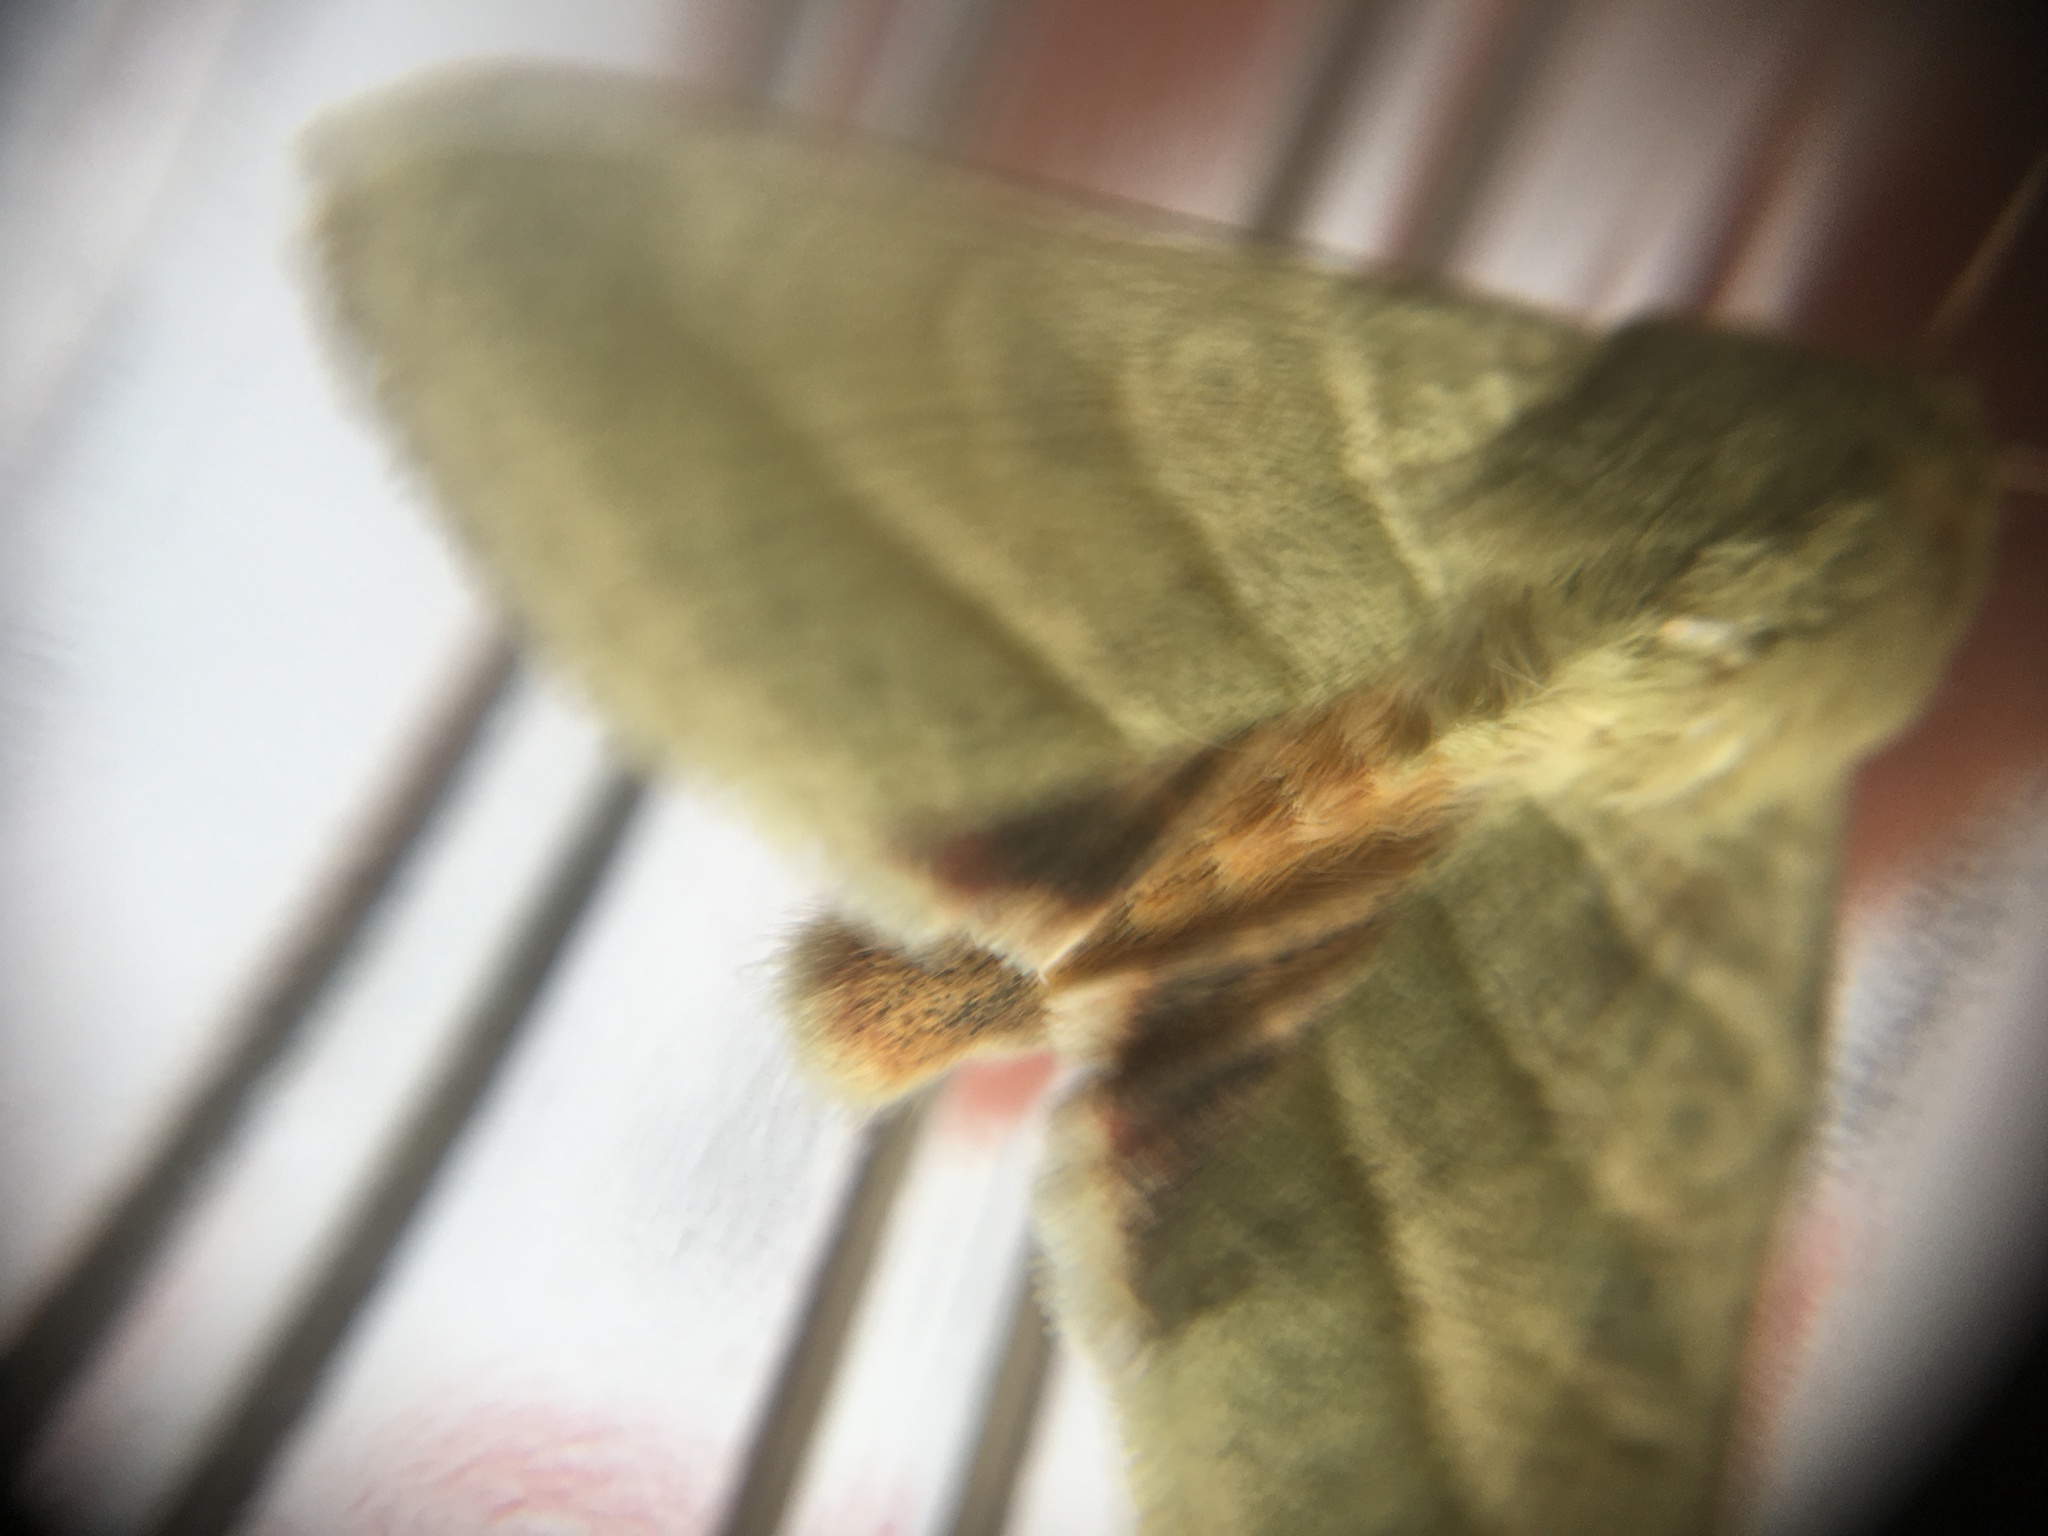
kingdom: Animalia
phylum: Arthropoda
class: Insecta
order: Lepidoptera
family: Noctuidae
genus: Chloridea
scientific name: Chloridea virescens
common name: Tobacco budworm
